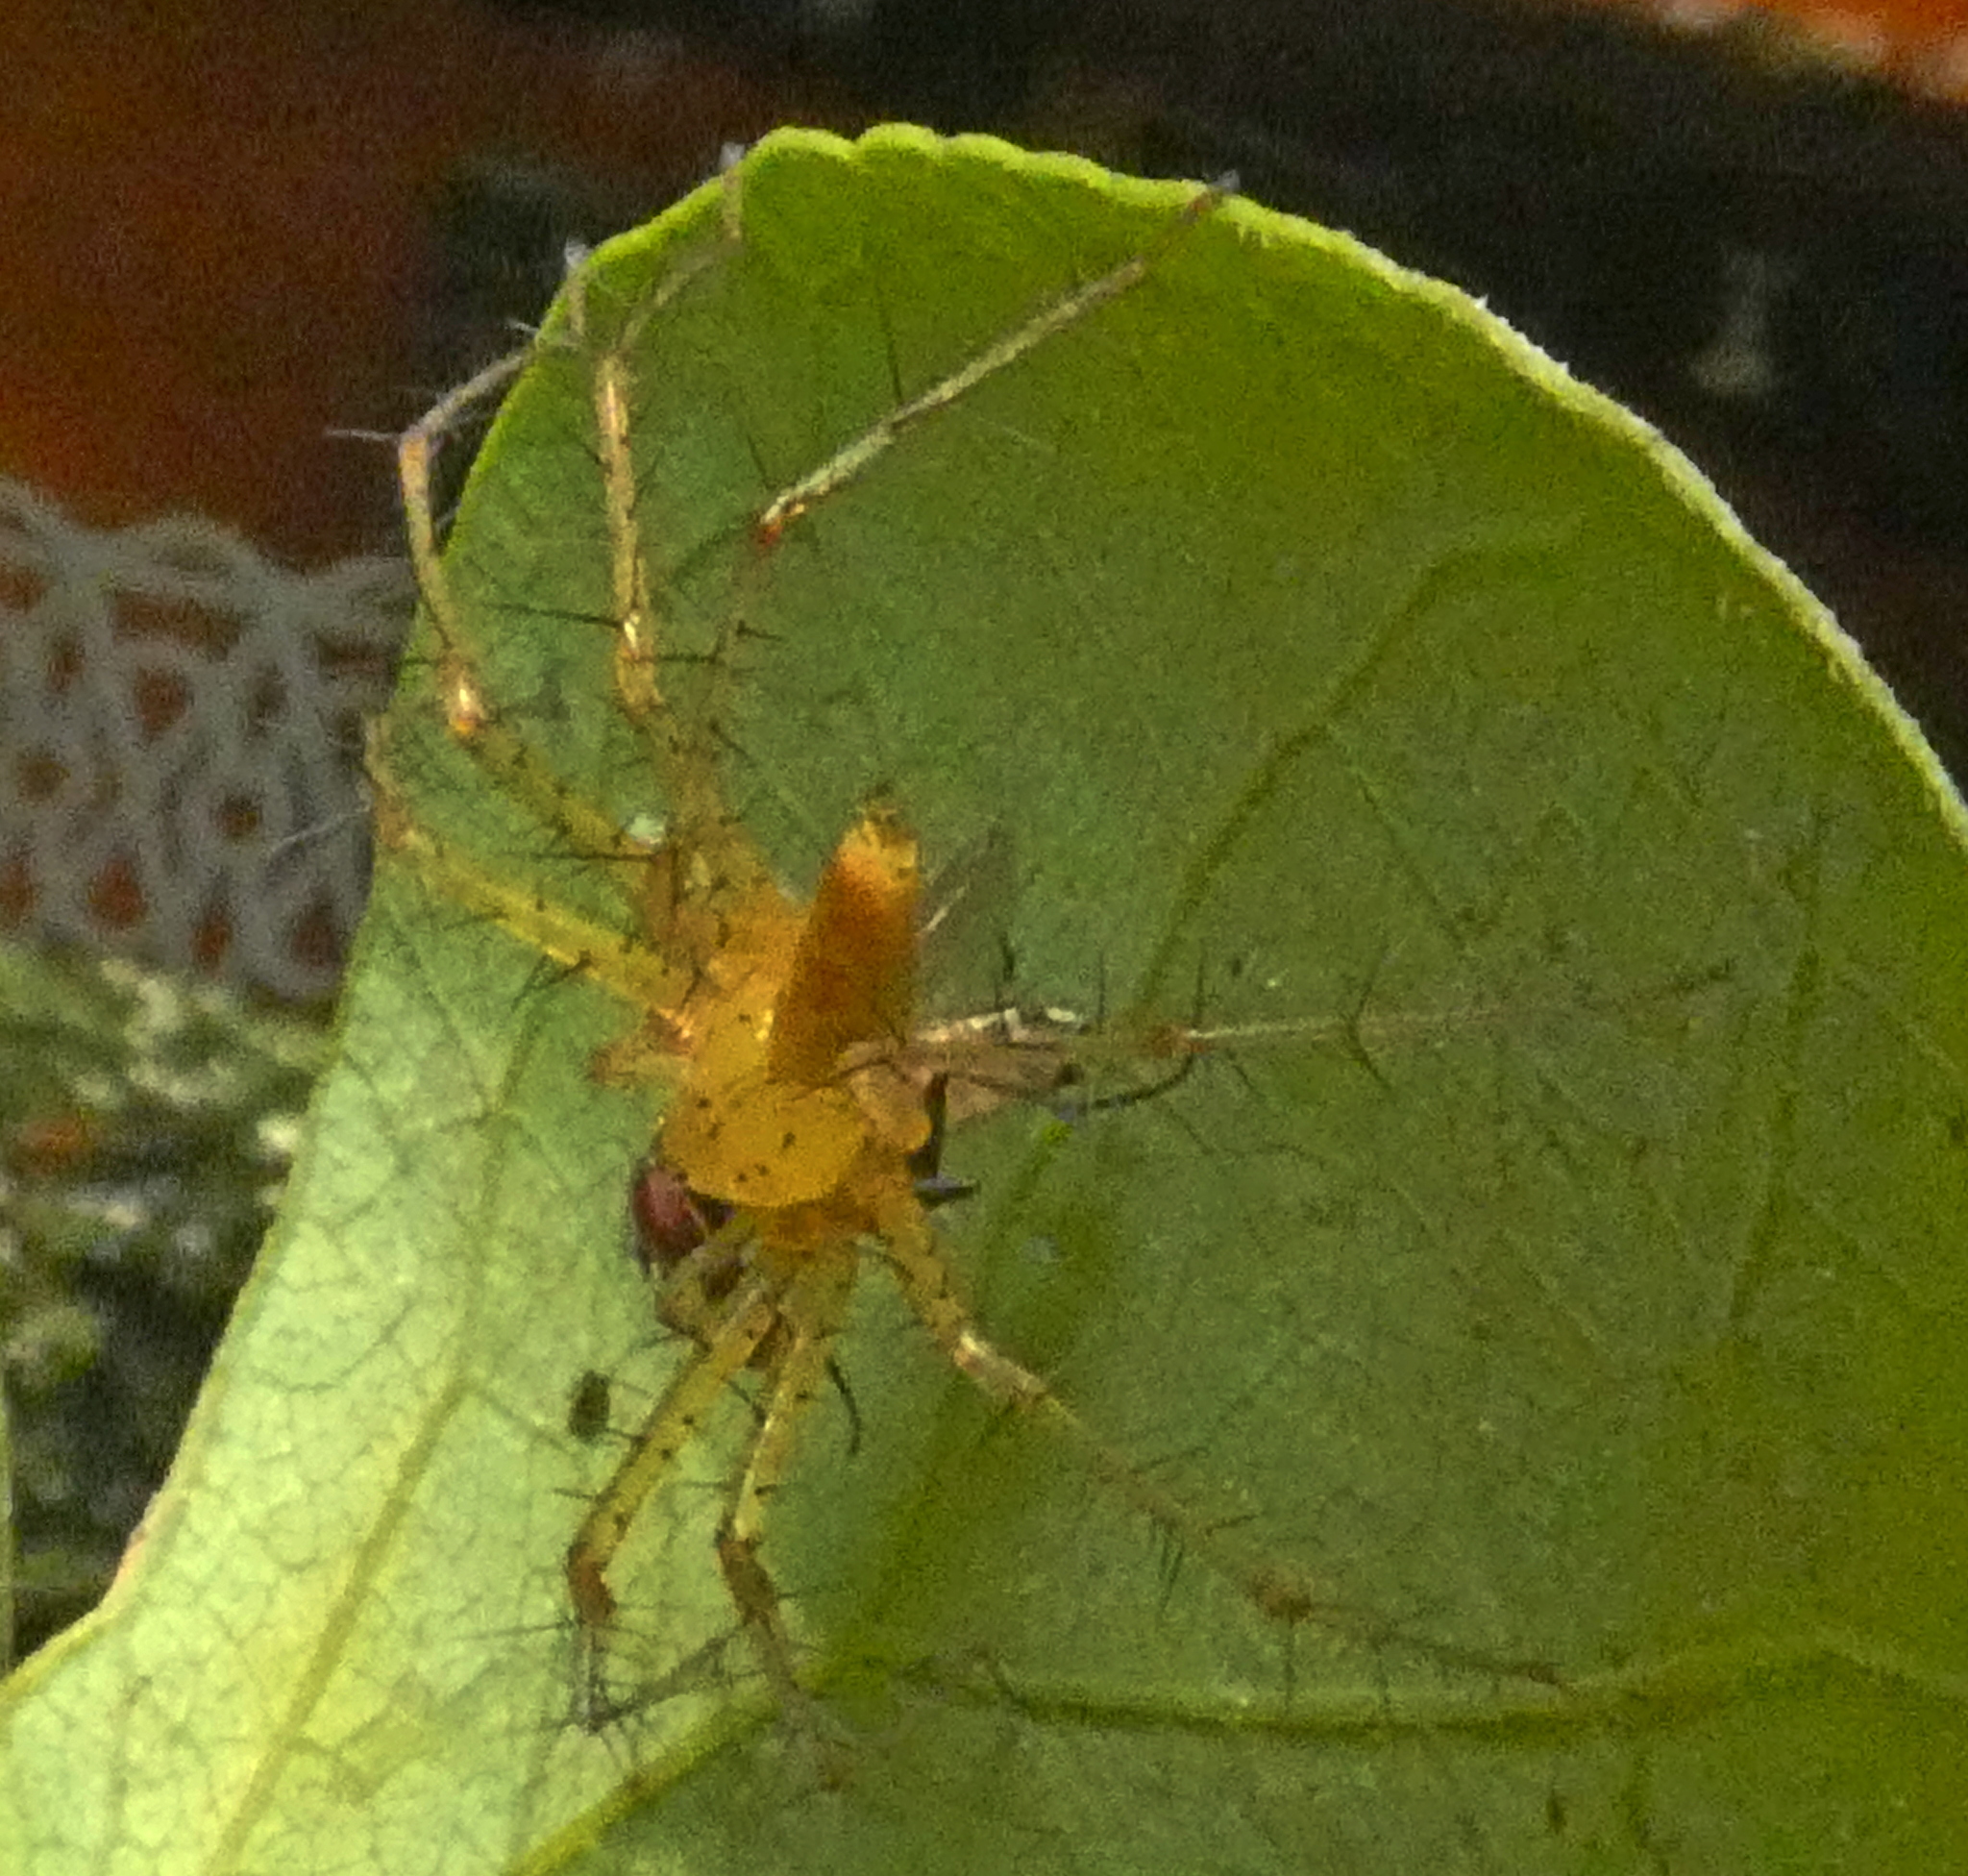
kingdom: Animalia
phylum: Arthropoda
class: Arachnida
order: Araneae
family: Pisauridae
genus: Architis
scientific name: Architis spinipes
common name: Nursery web spiders
